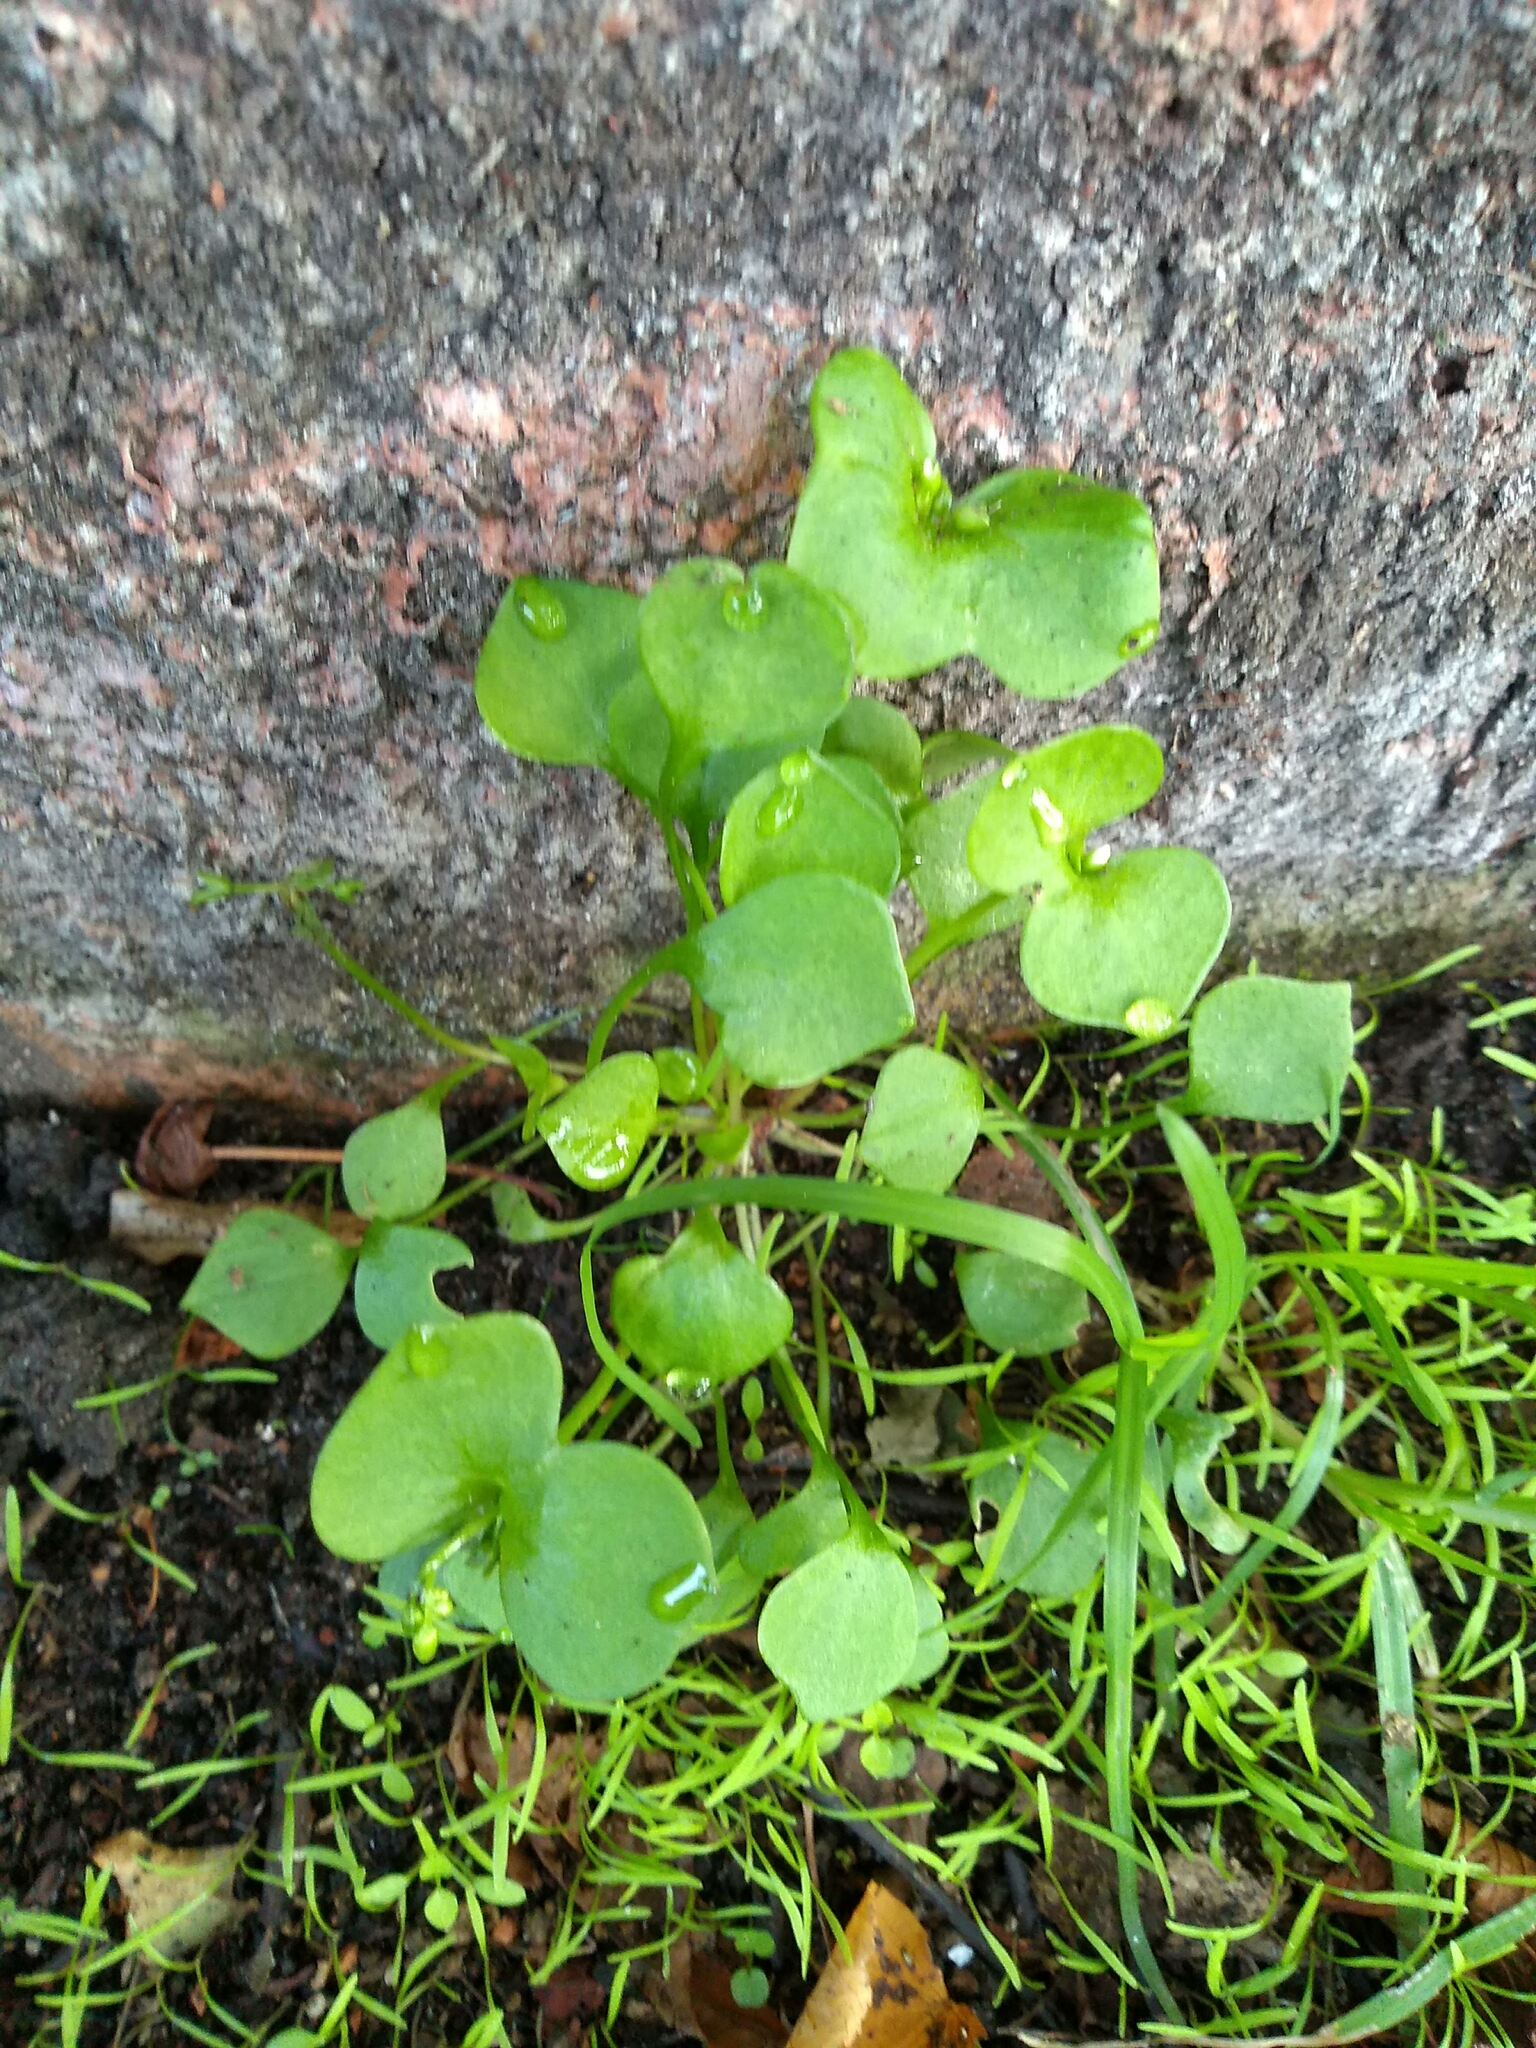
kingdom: Plantae
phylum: Tracheophyta
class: Magnoliopsida
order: Caryophyllales
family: Montiaceae
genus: Claytonia
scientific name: Claytonia perfoliata
